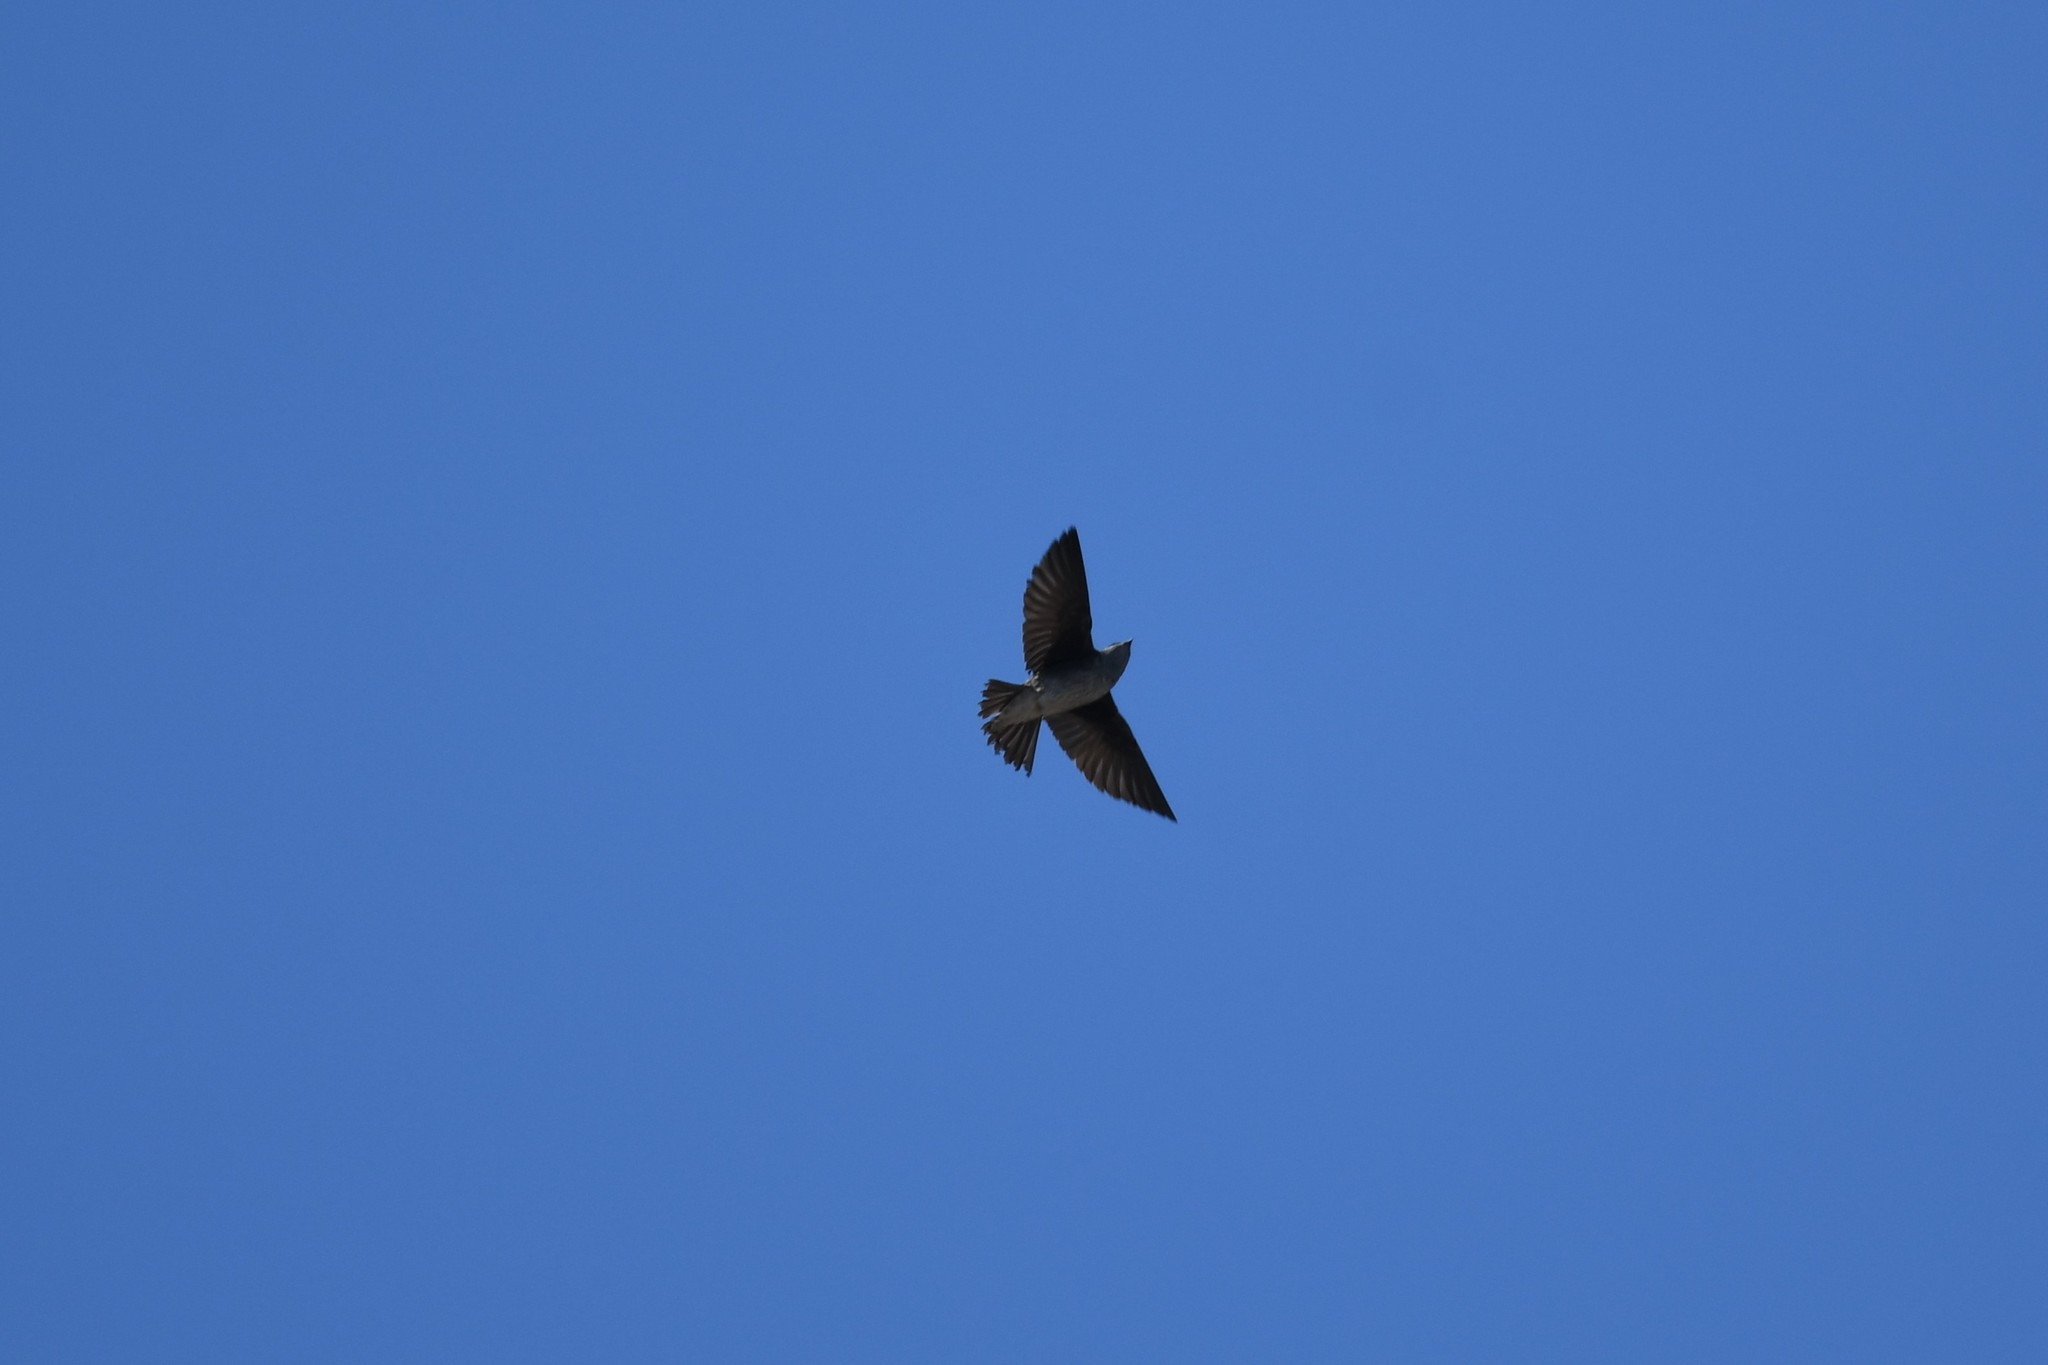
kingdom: Animalia
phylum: Chordata
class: Aves
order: Passeriformes
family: Hirundinidae
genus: Progne
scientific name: Progne subis
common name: Purple martin
